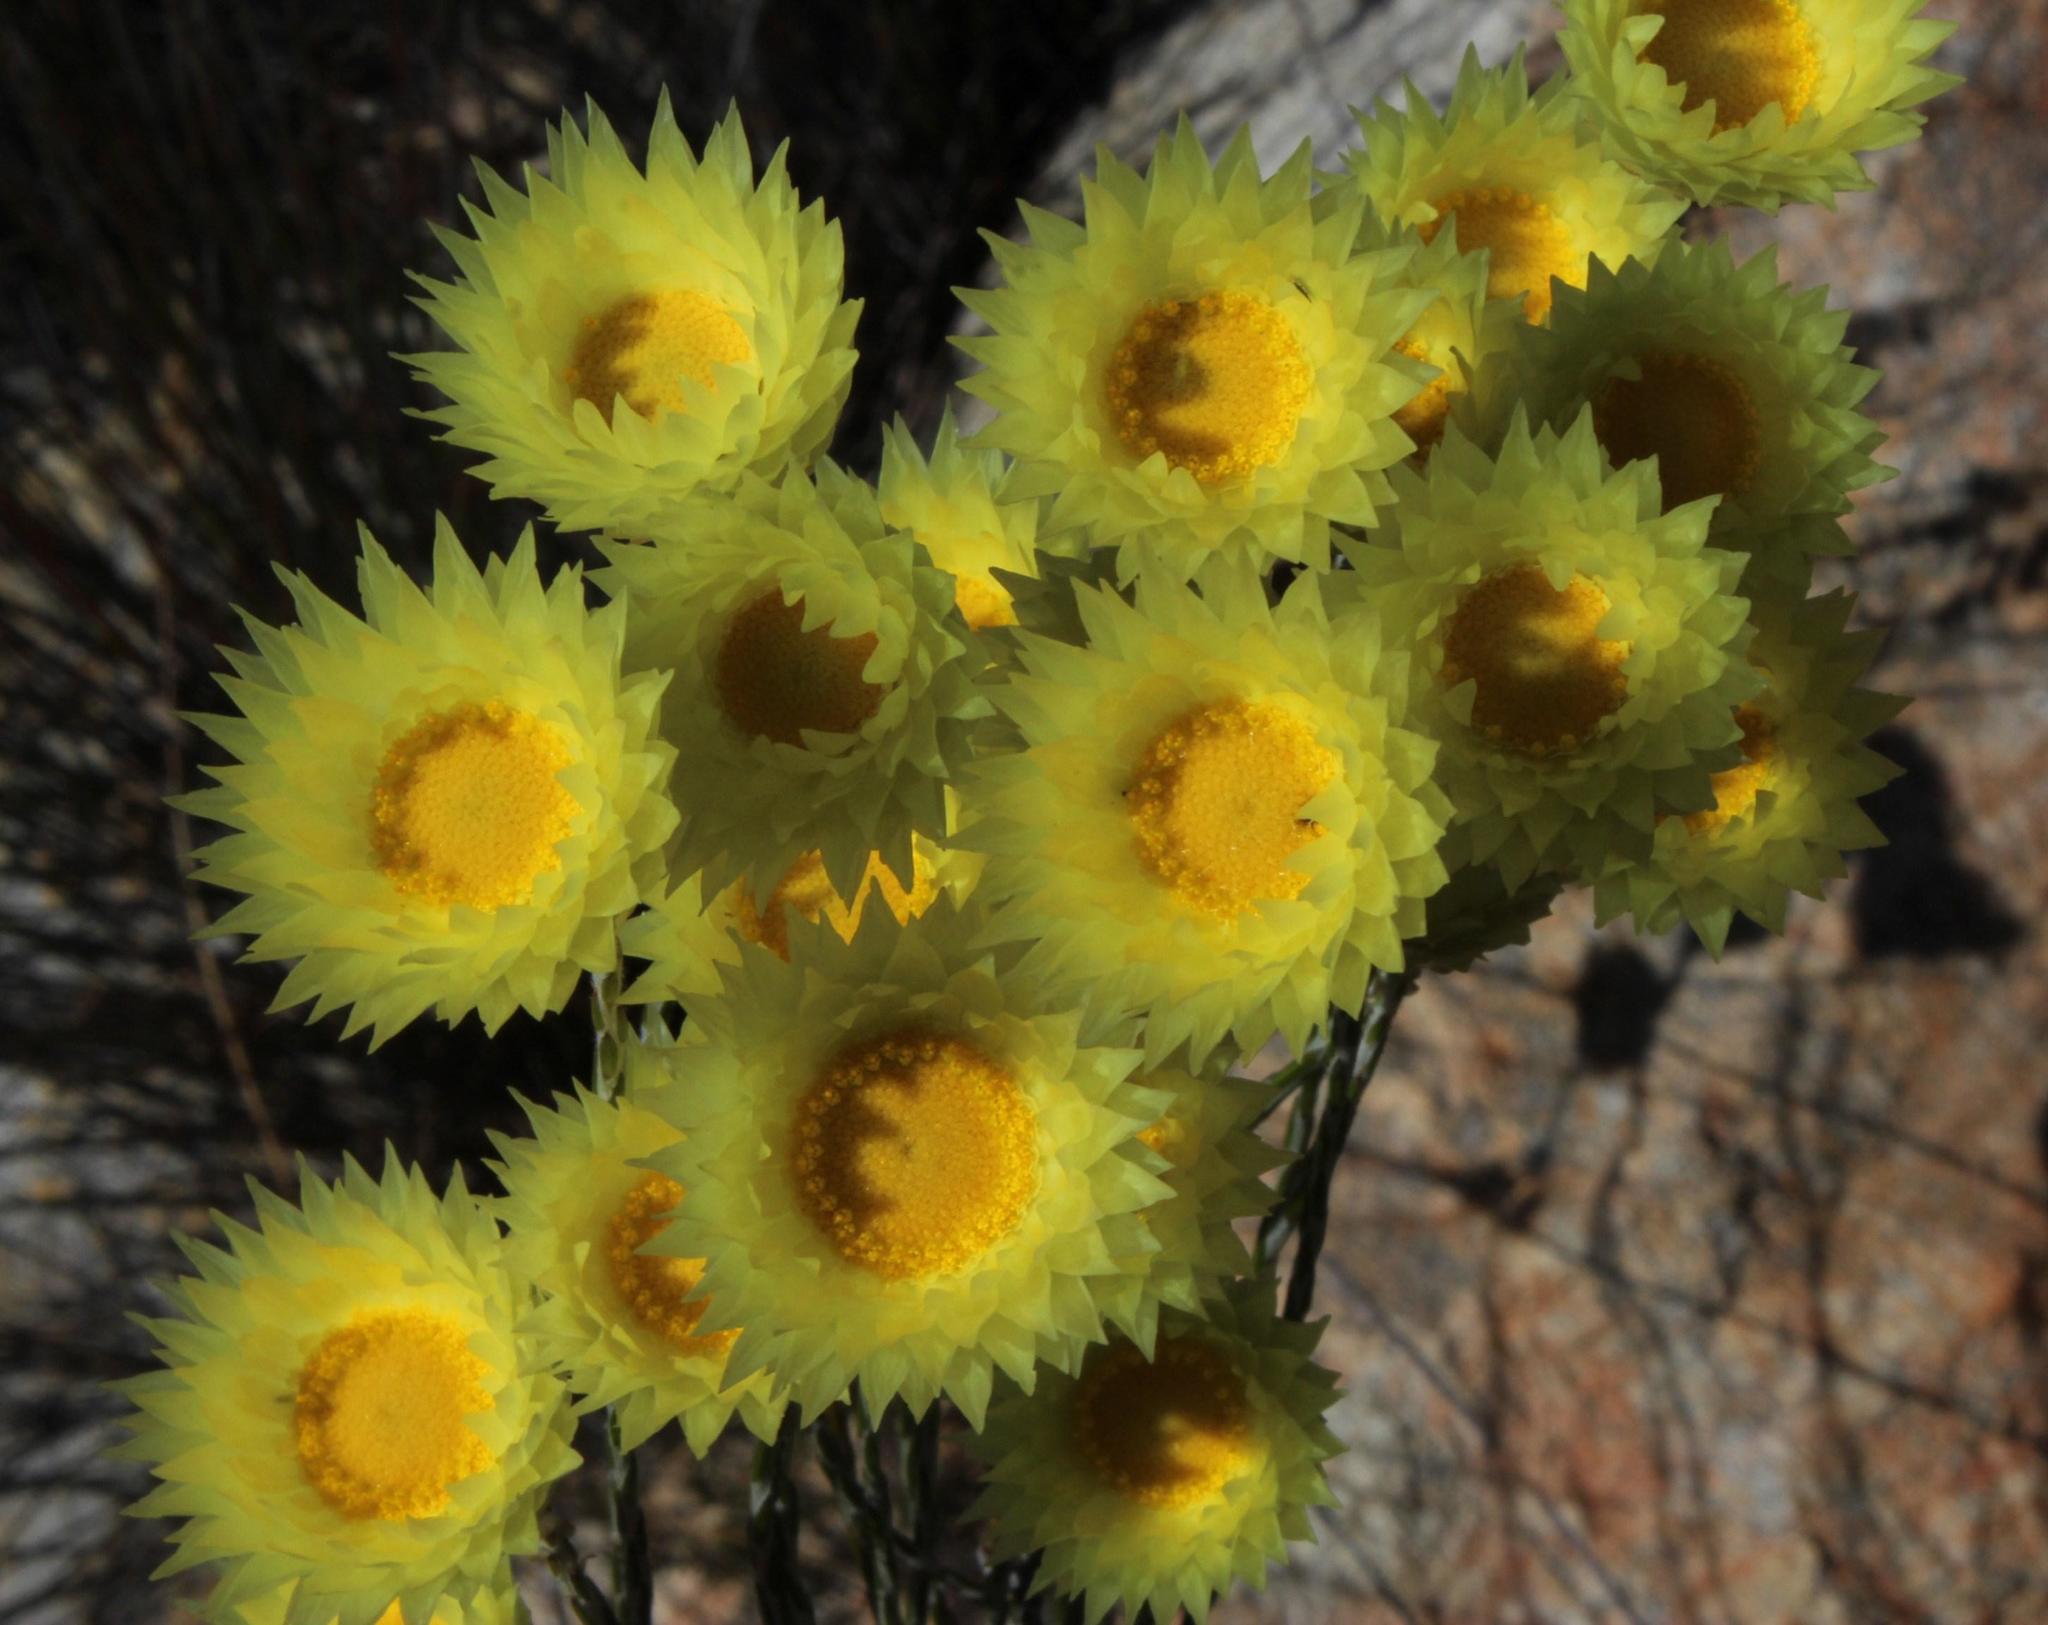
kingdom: Plantae
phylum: Tracheophyta
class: Magnoliopsida
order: Asterales
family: Asteraceae
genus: Edmondia
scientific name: Edmondia fasciculata
